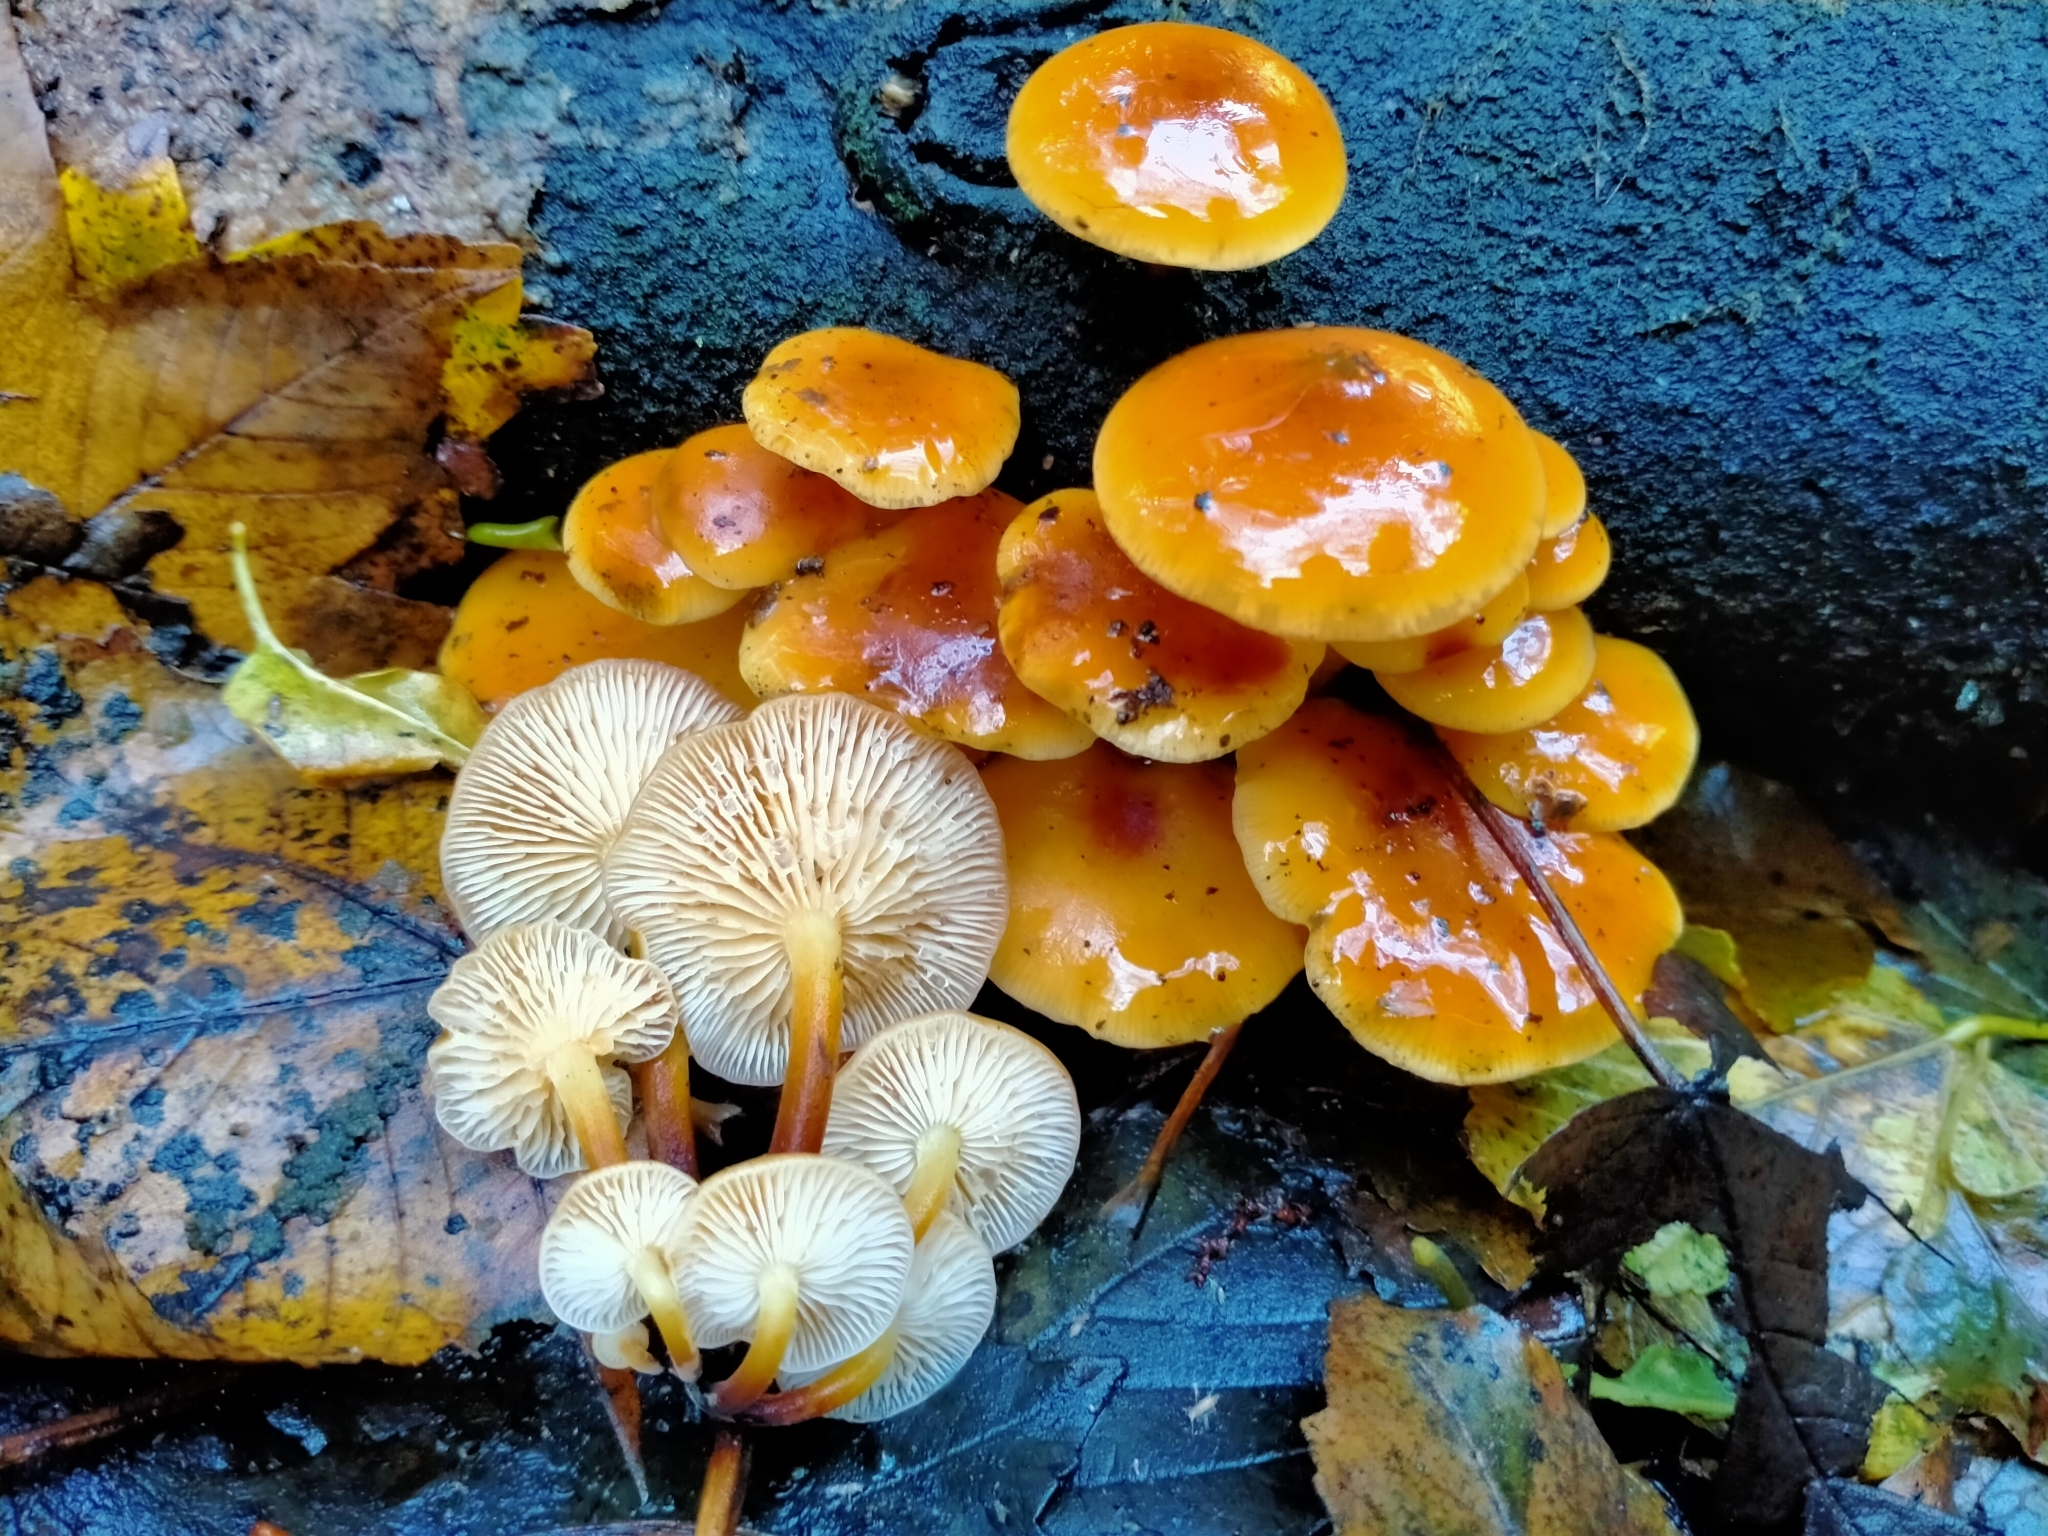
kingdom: Fungi
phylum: Basidiomycota
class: Agaricomycetes
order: Agaricales
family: Physalacriaceae
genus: Flammulina
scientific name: Flammulina velutipes
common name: Velvet shank
